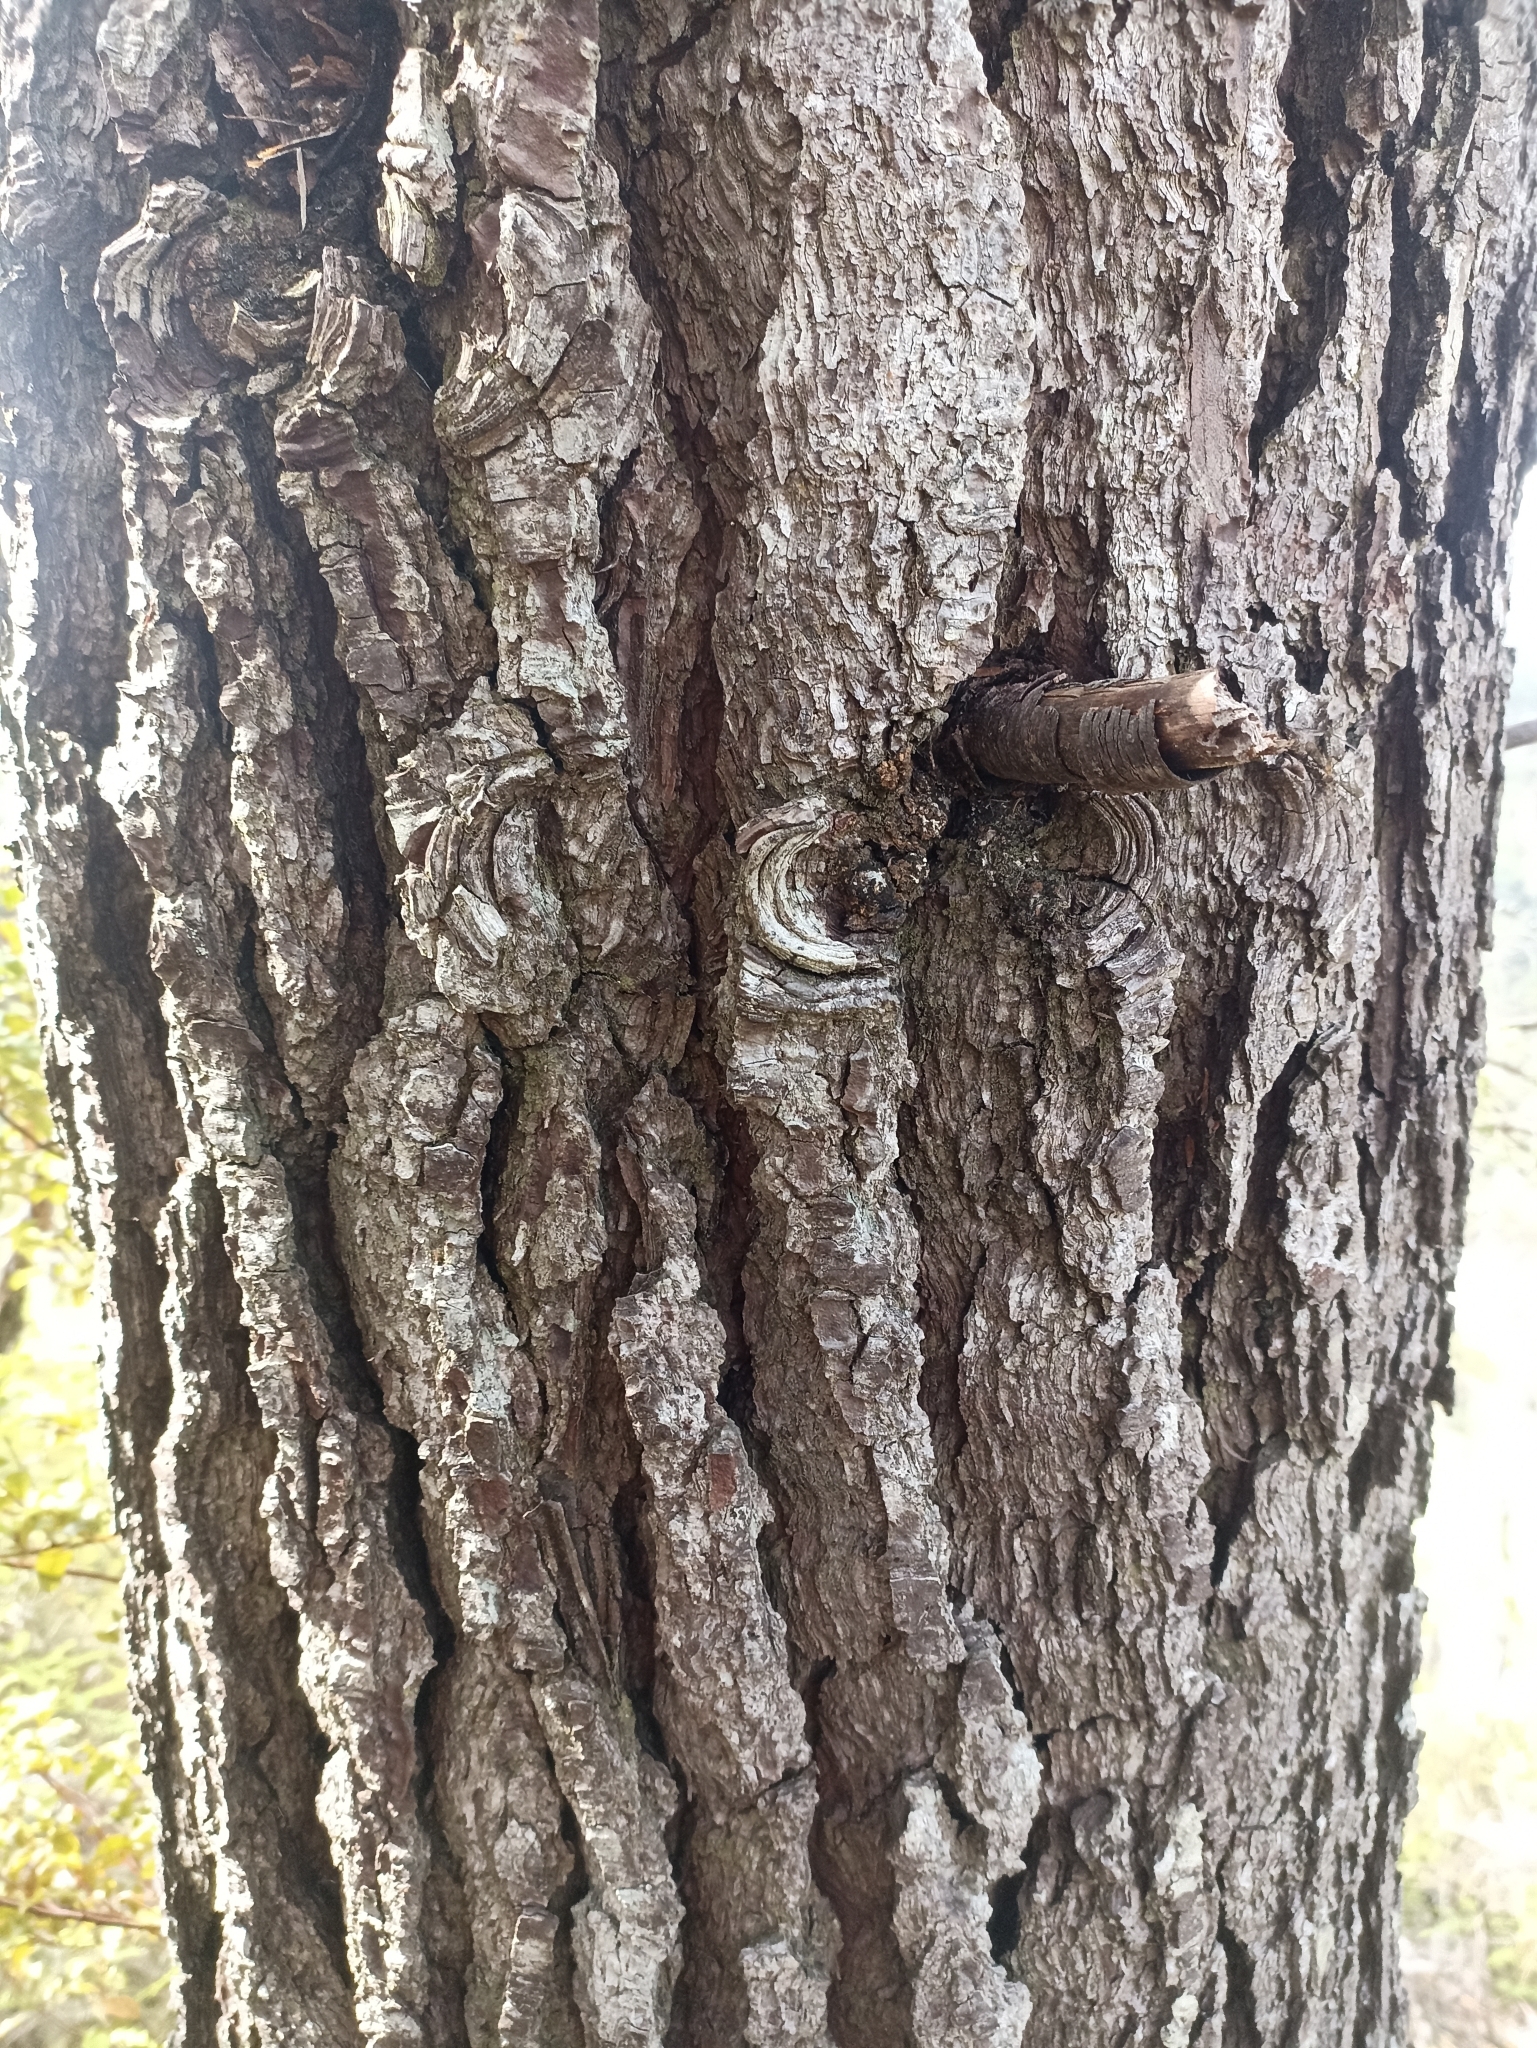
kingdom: Plantae
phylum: Tracheophyta
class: Pinopsida
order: Pinales
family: Pinaceae
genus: Pinus
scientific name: Pinus pinaster
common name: Maritime pine
